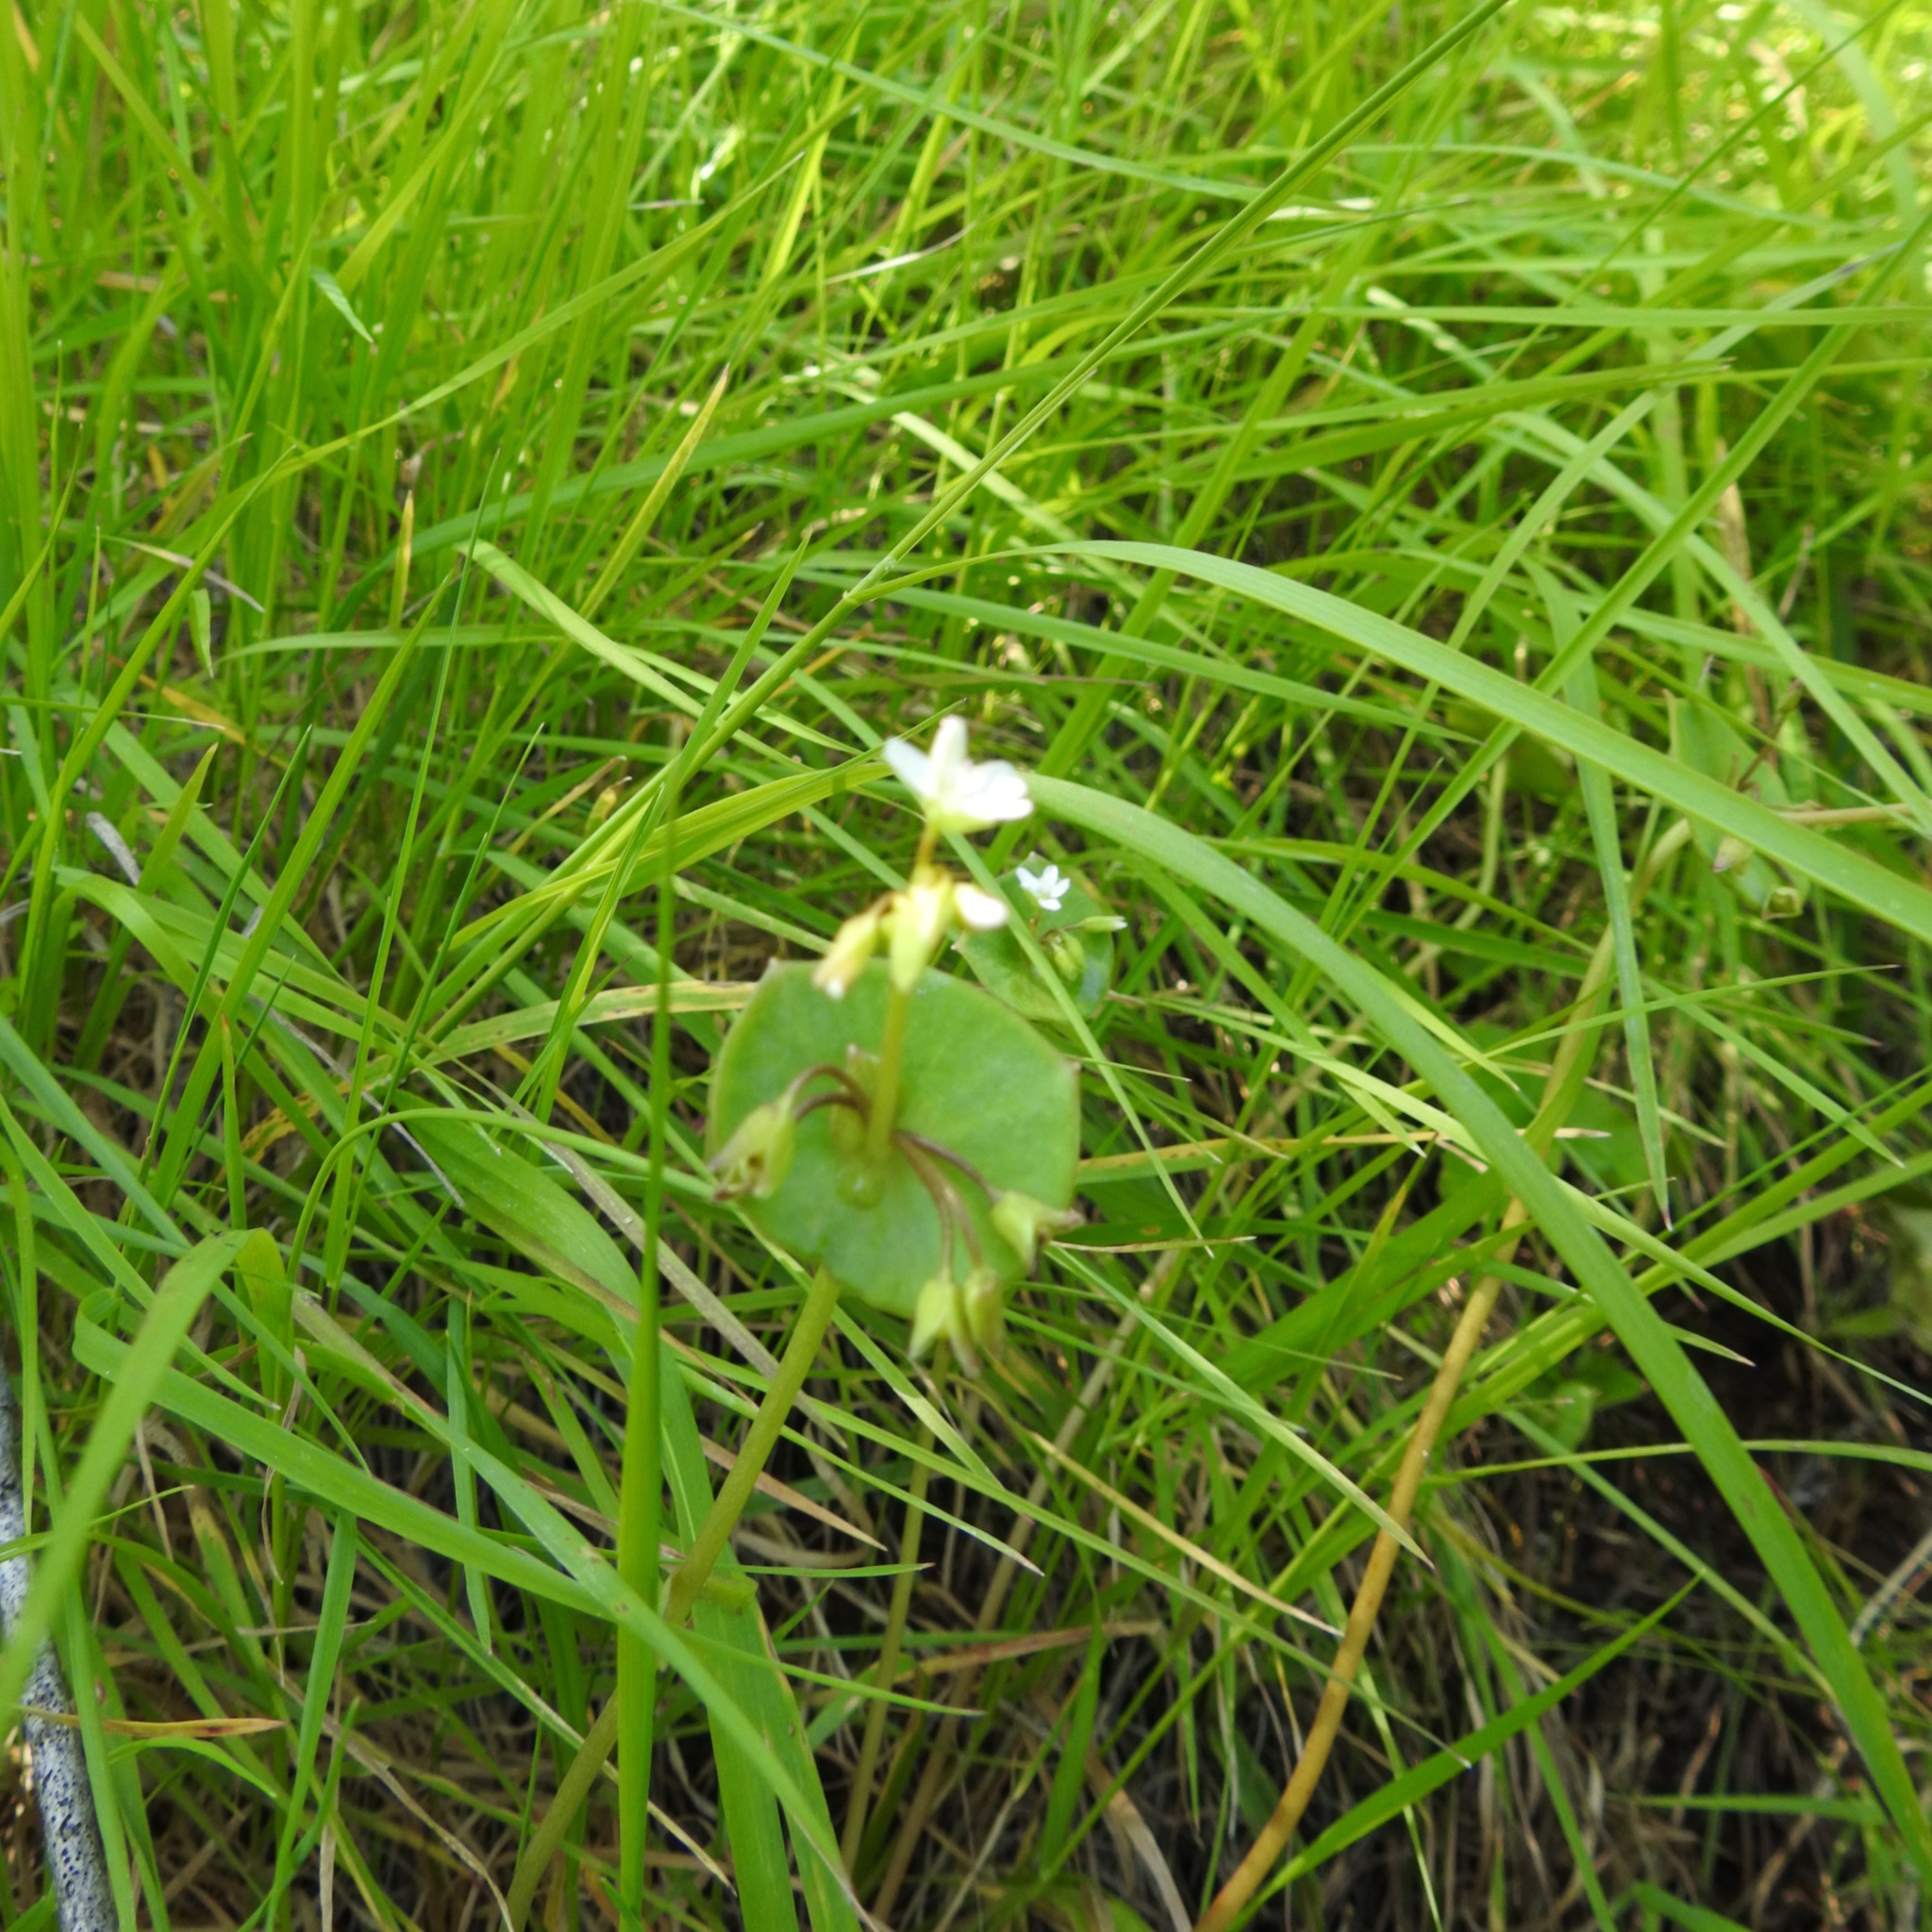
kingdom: Plantae
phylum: Tracheophyta
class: Magnoliopsida
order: Caryophyllales
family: Montiaceae
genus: Claytonia
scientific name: Claytonia perfoliata
